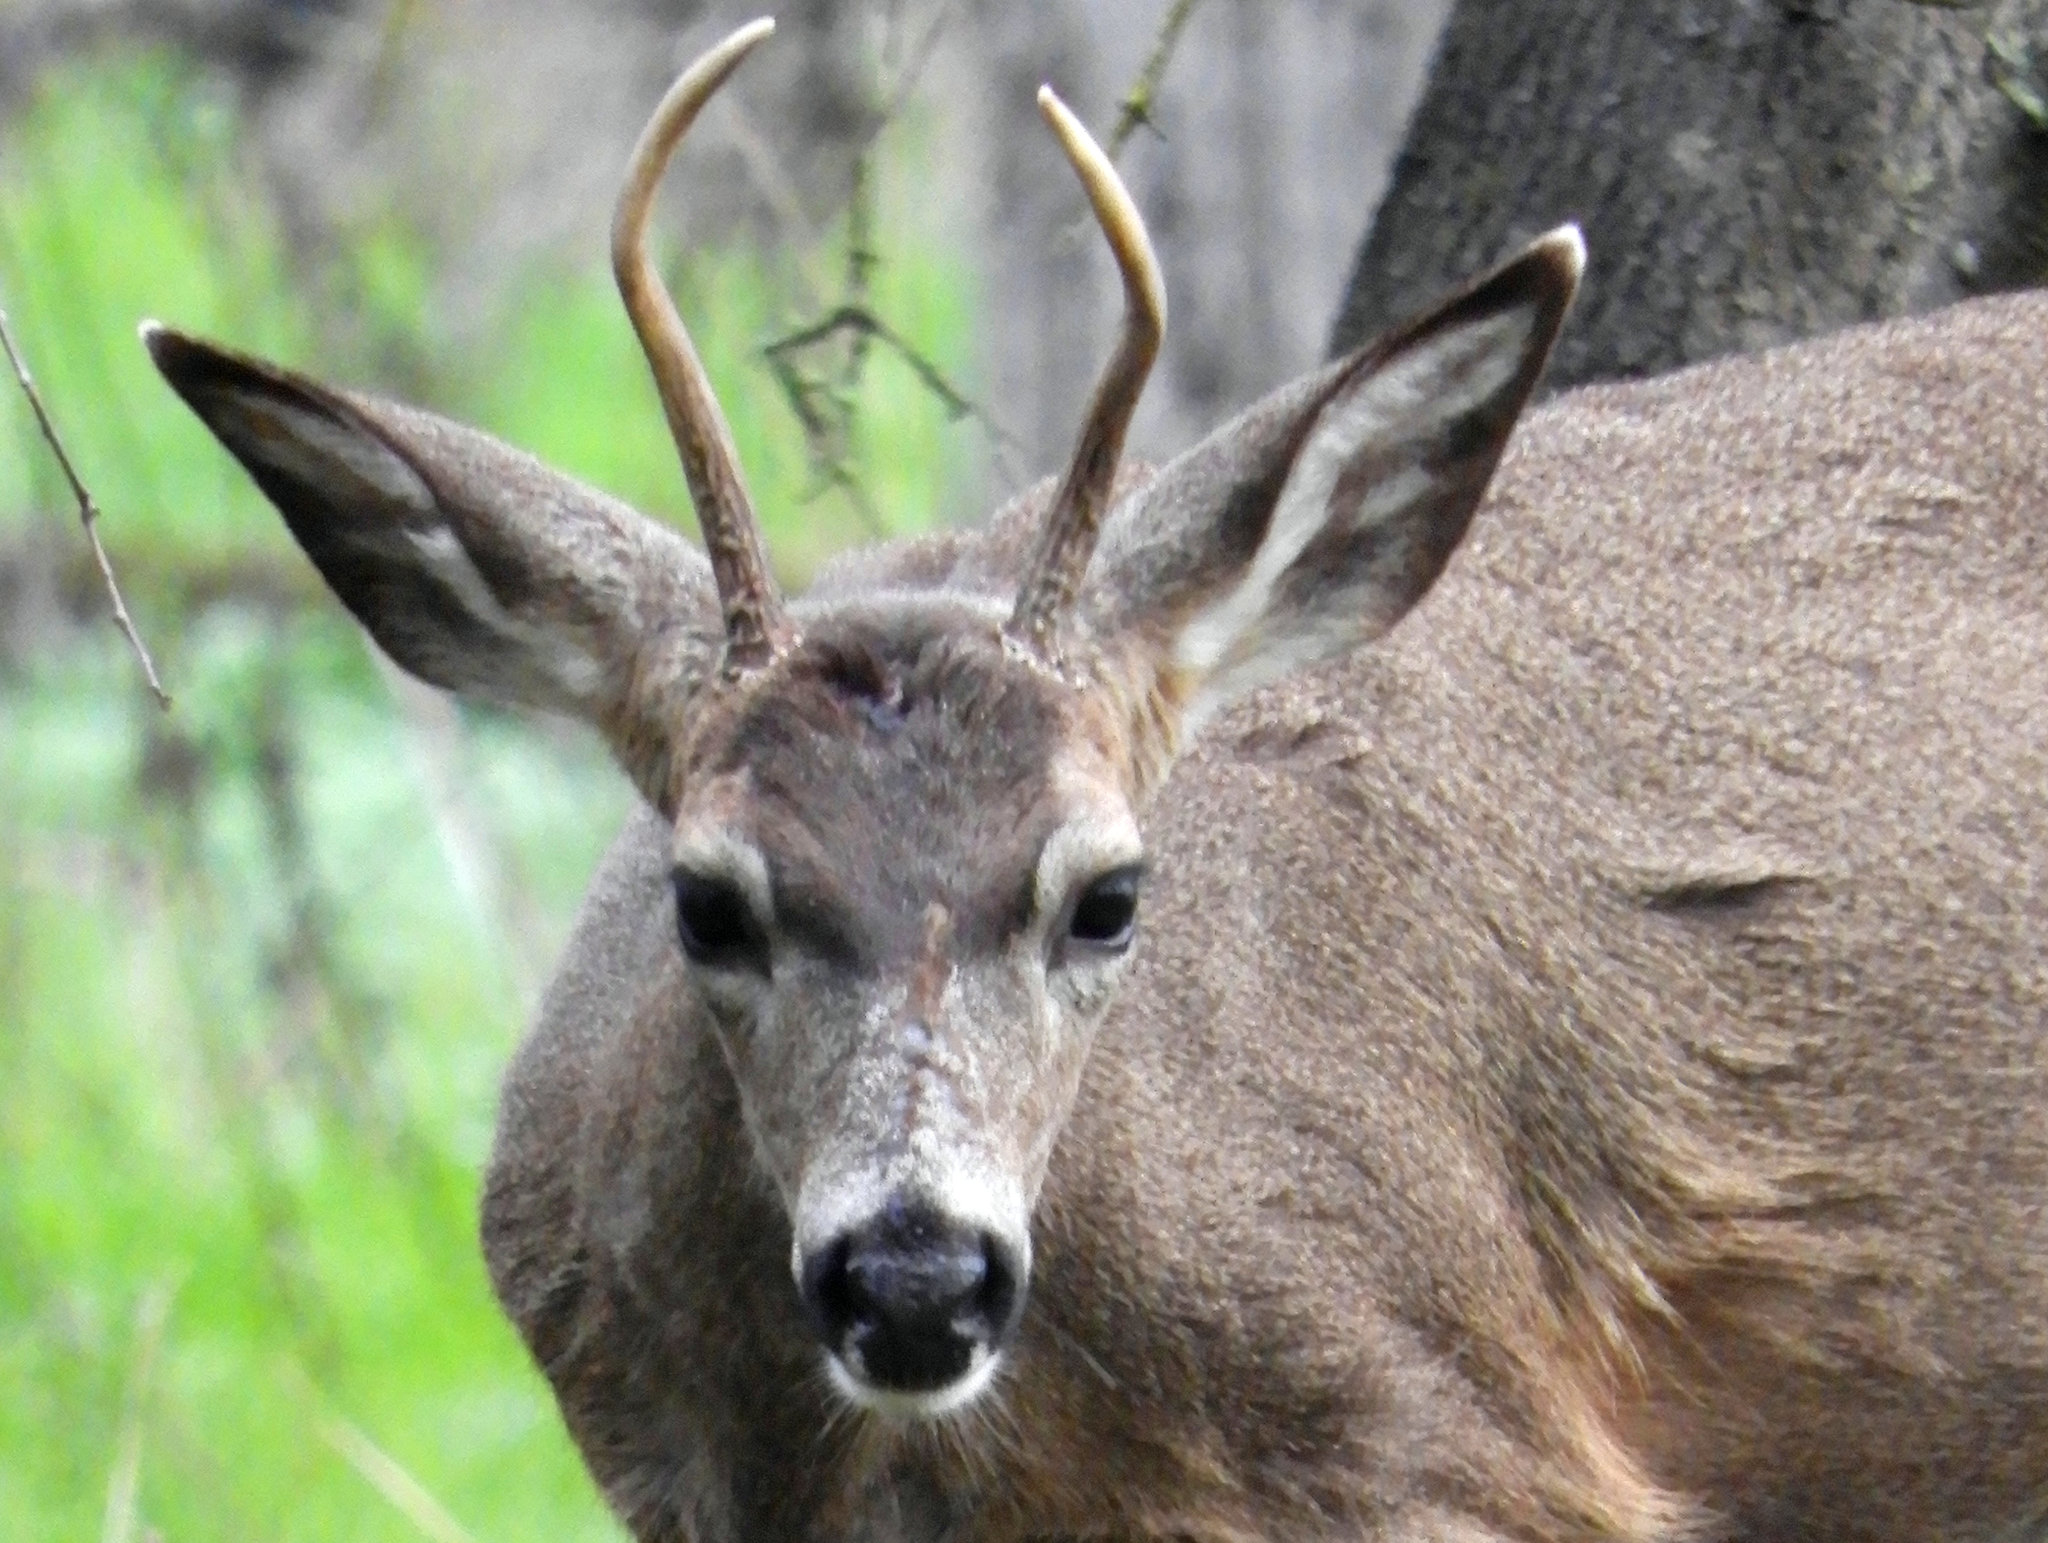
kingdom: Animalia
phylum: Chordata
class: Mammalia
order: Artiodactyla
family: Cervidae
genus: Odocoileus
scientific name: Odocoileus hemionus
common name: Mule deer
